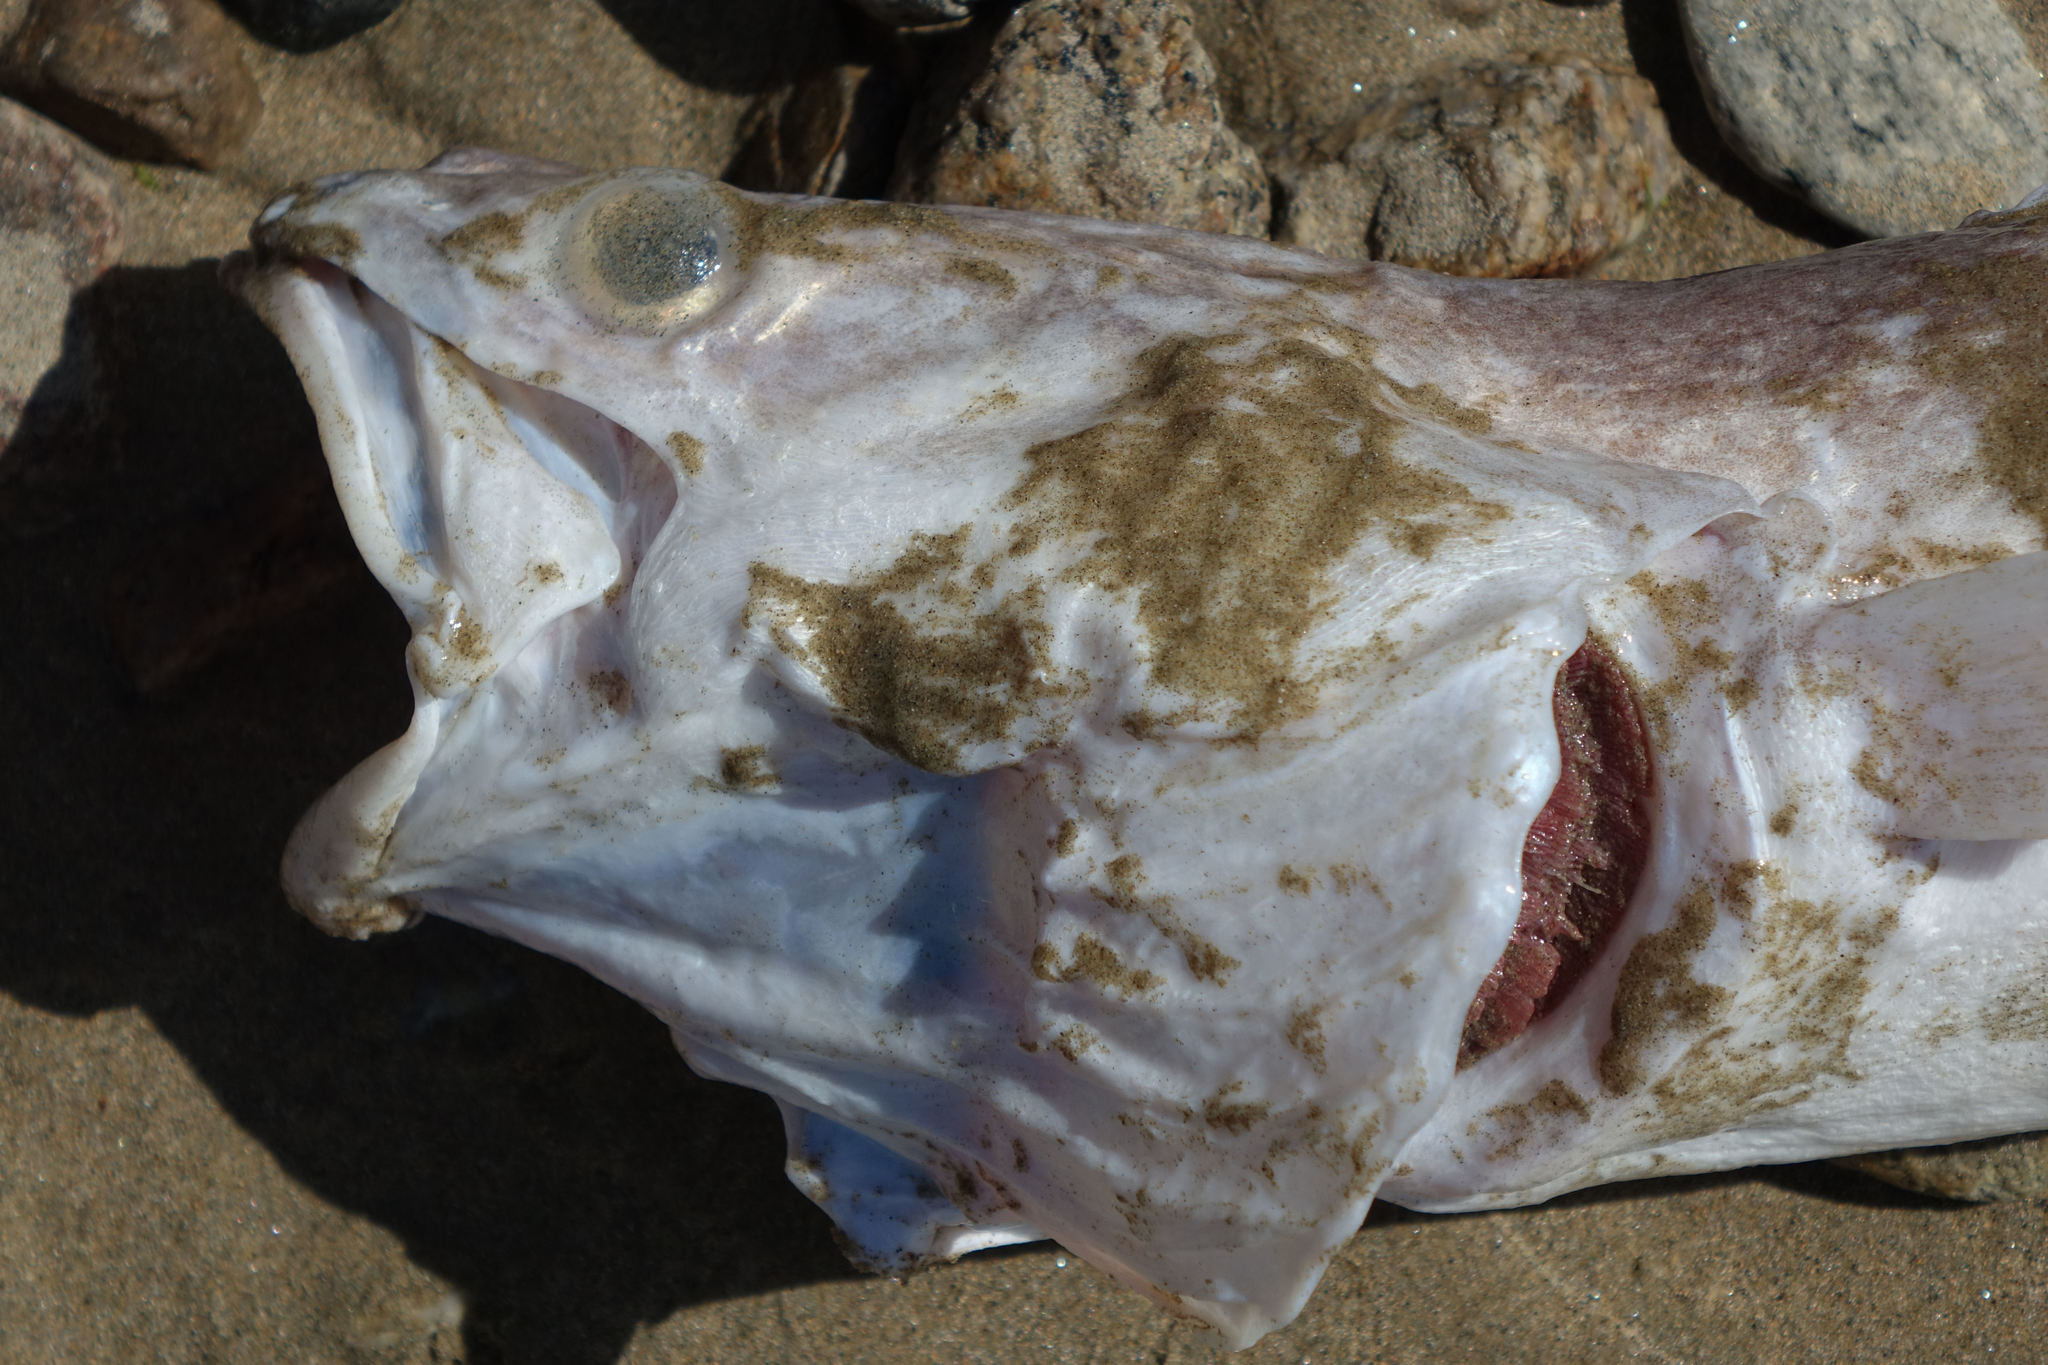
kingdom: Animalia
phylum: Chordata
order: Ophidiiformes
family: Ophidiidae
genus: Genypterus
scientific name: Genypterus blacodes
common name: Kingclip
